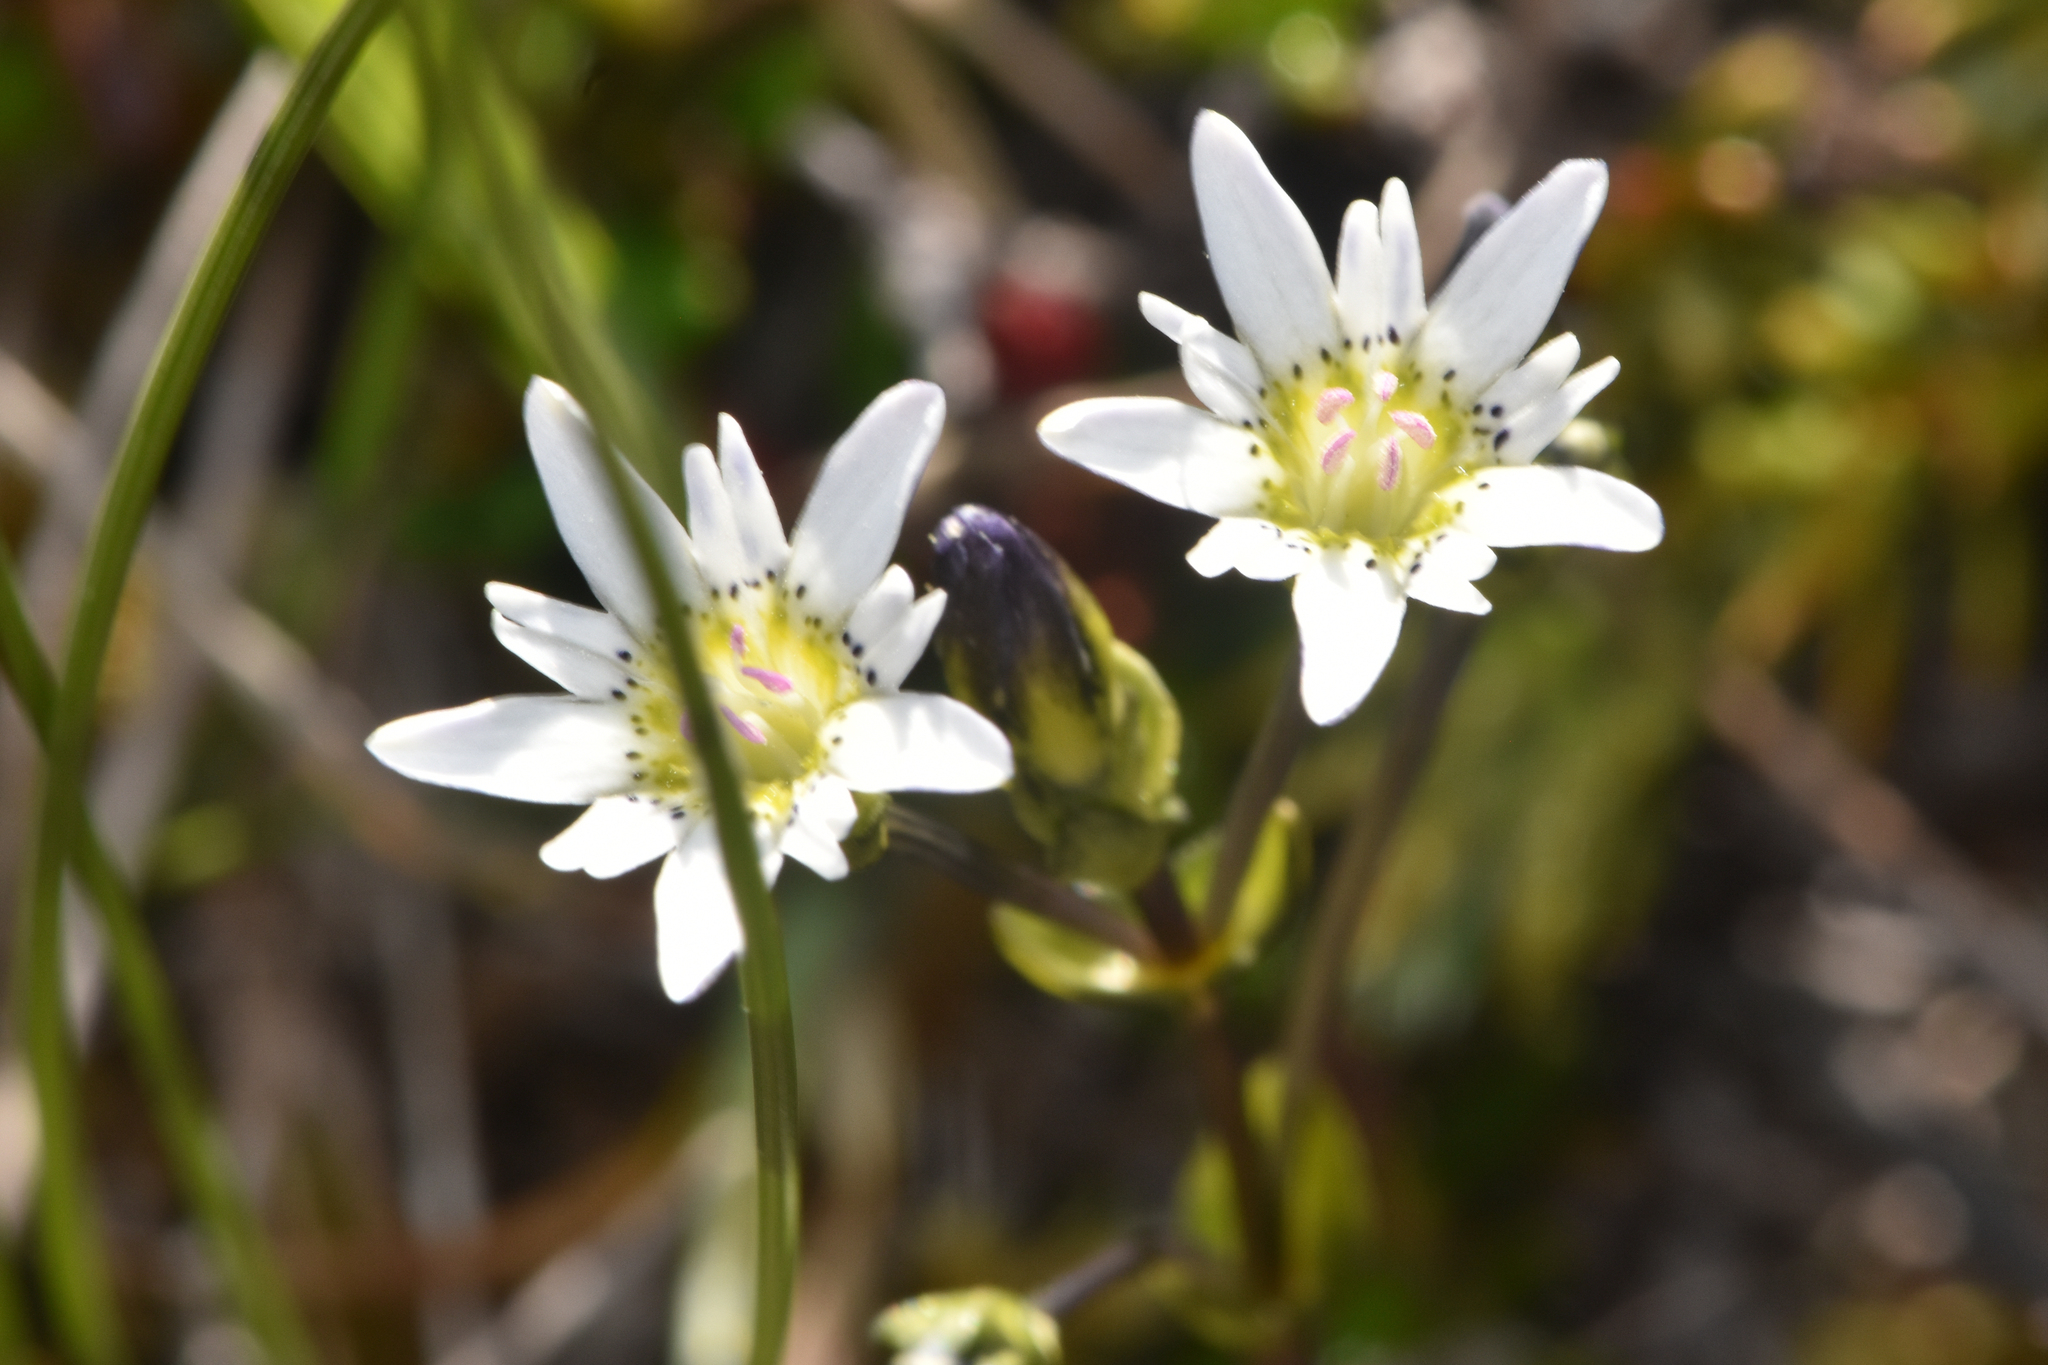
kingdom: Plantae
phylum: Tracheophyta
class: Magnoliopsida
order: Gentianales
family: Gentianaceae
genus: Gentiana
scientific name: Gentiana douglasiana
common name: Swamp gentian
